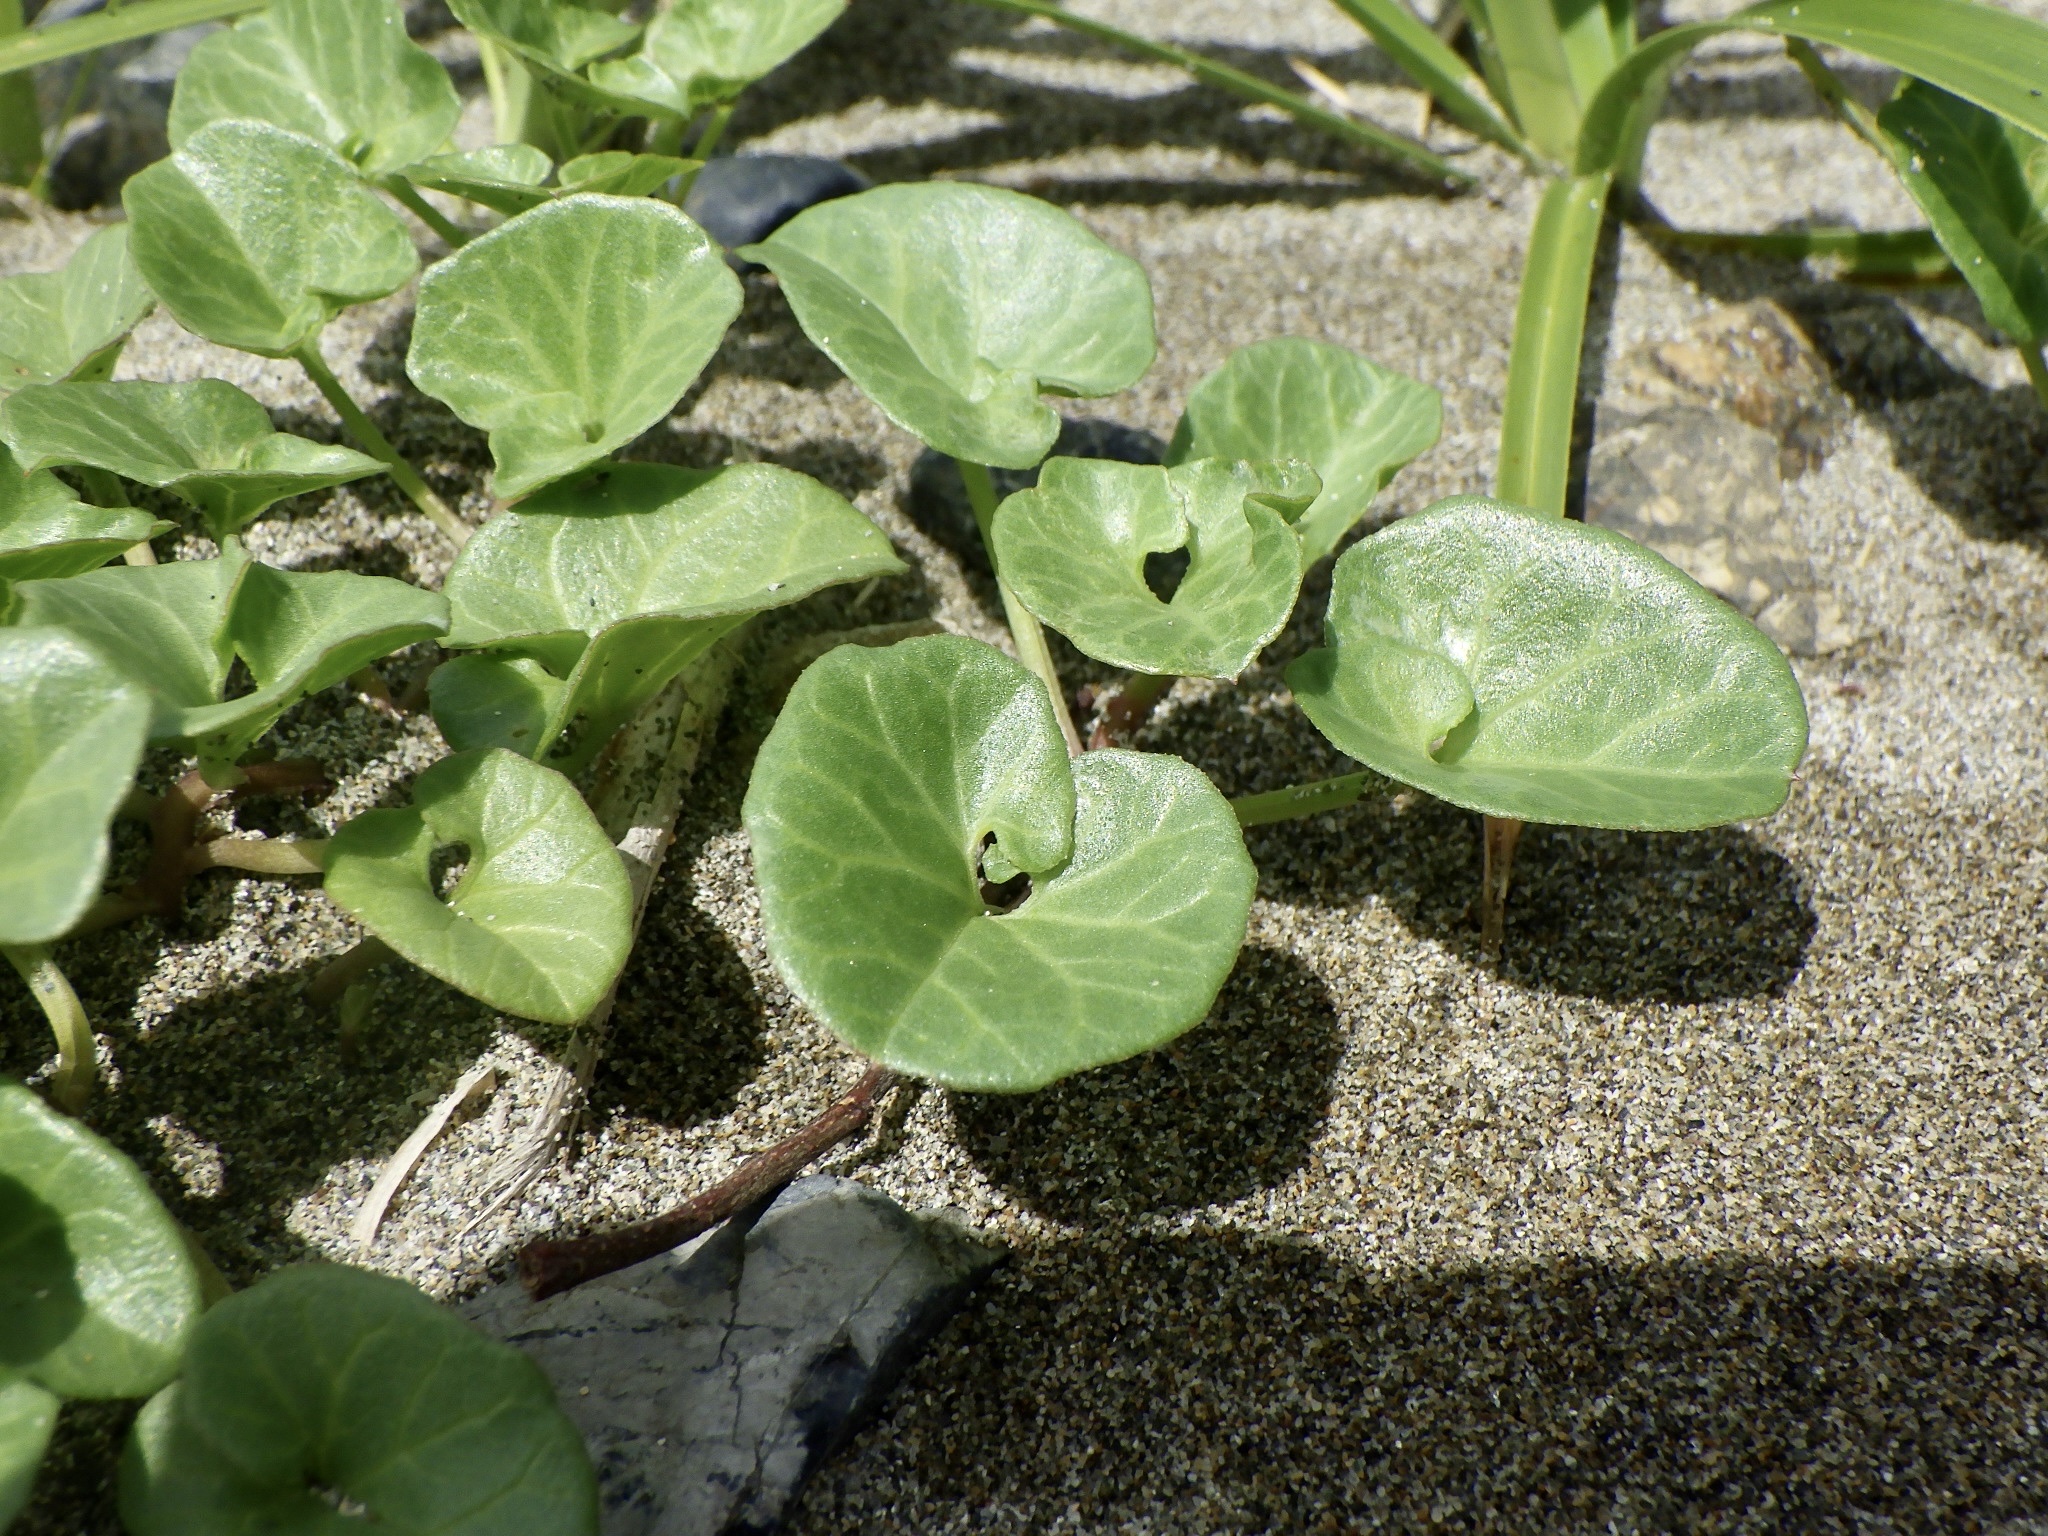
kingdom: Plantae
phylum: Tracheophyta
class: Magnoliopsida
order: Solanales
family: Convolvulaceae
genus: Calystegia
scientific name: Calystegia soldanella
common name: Sea bindweed
